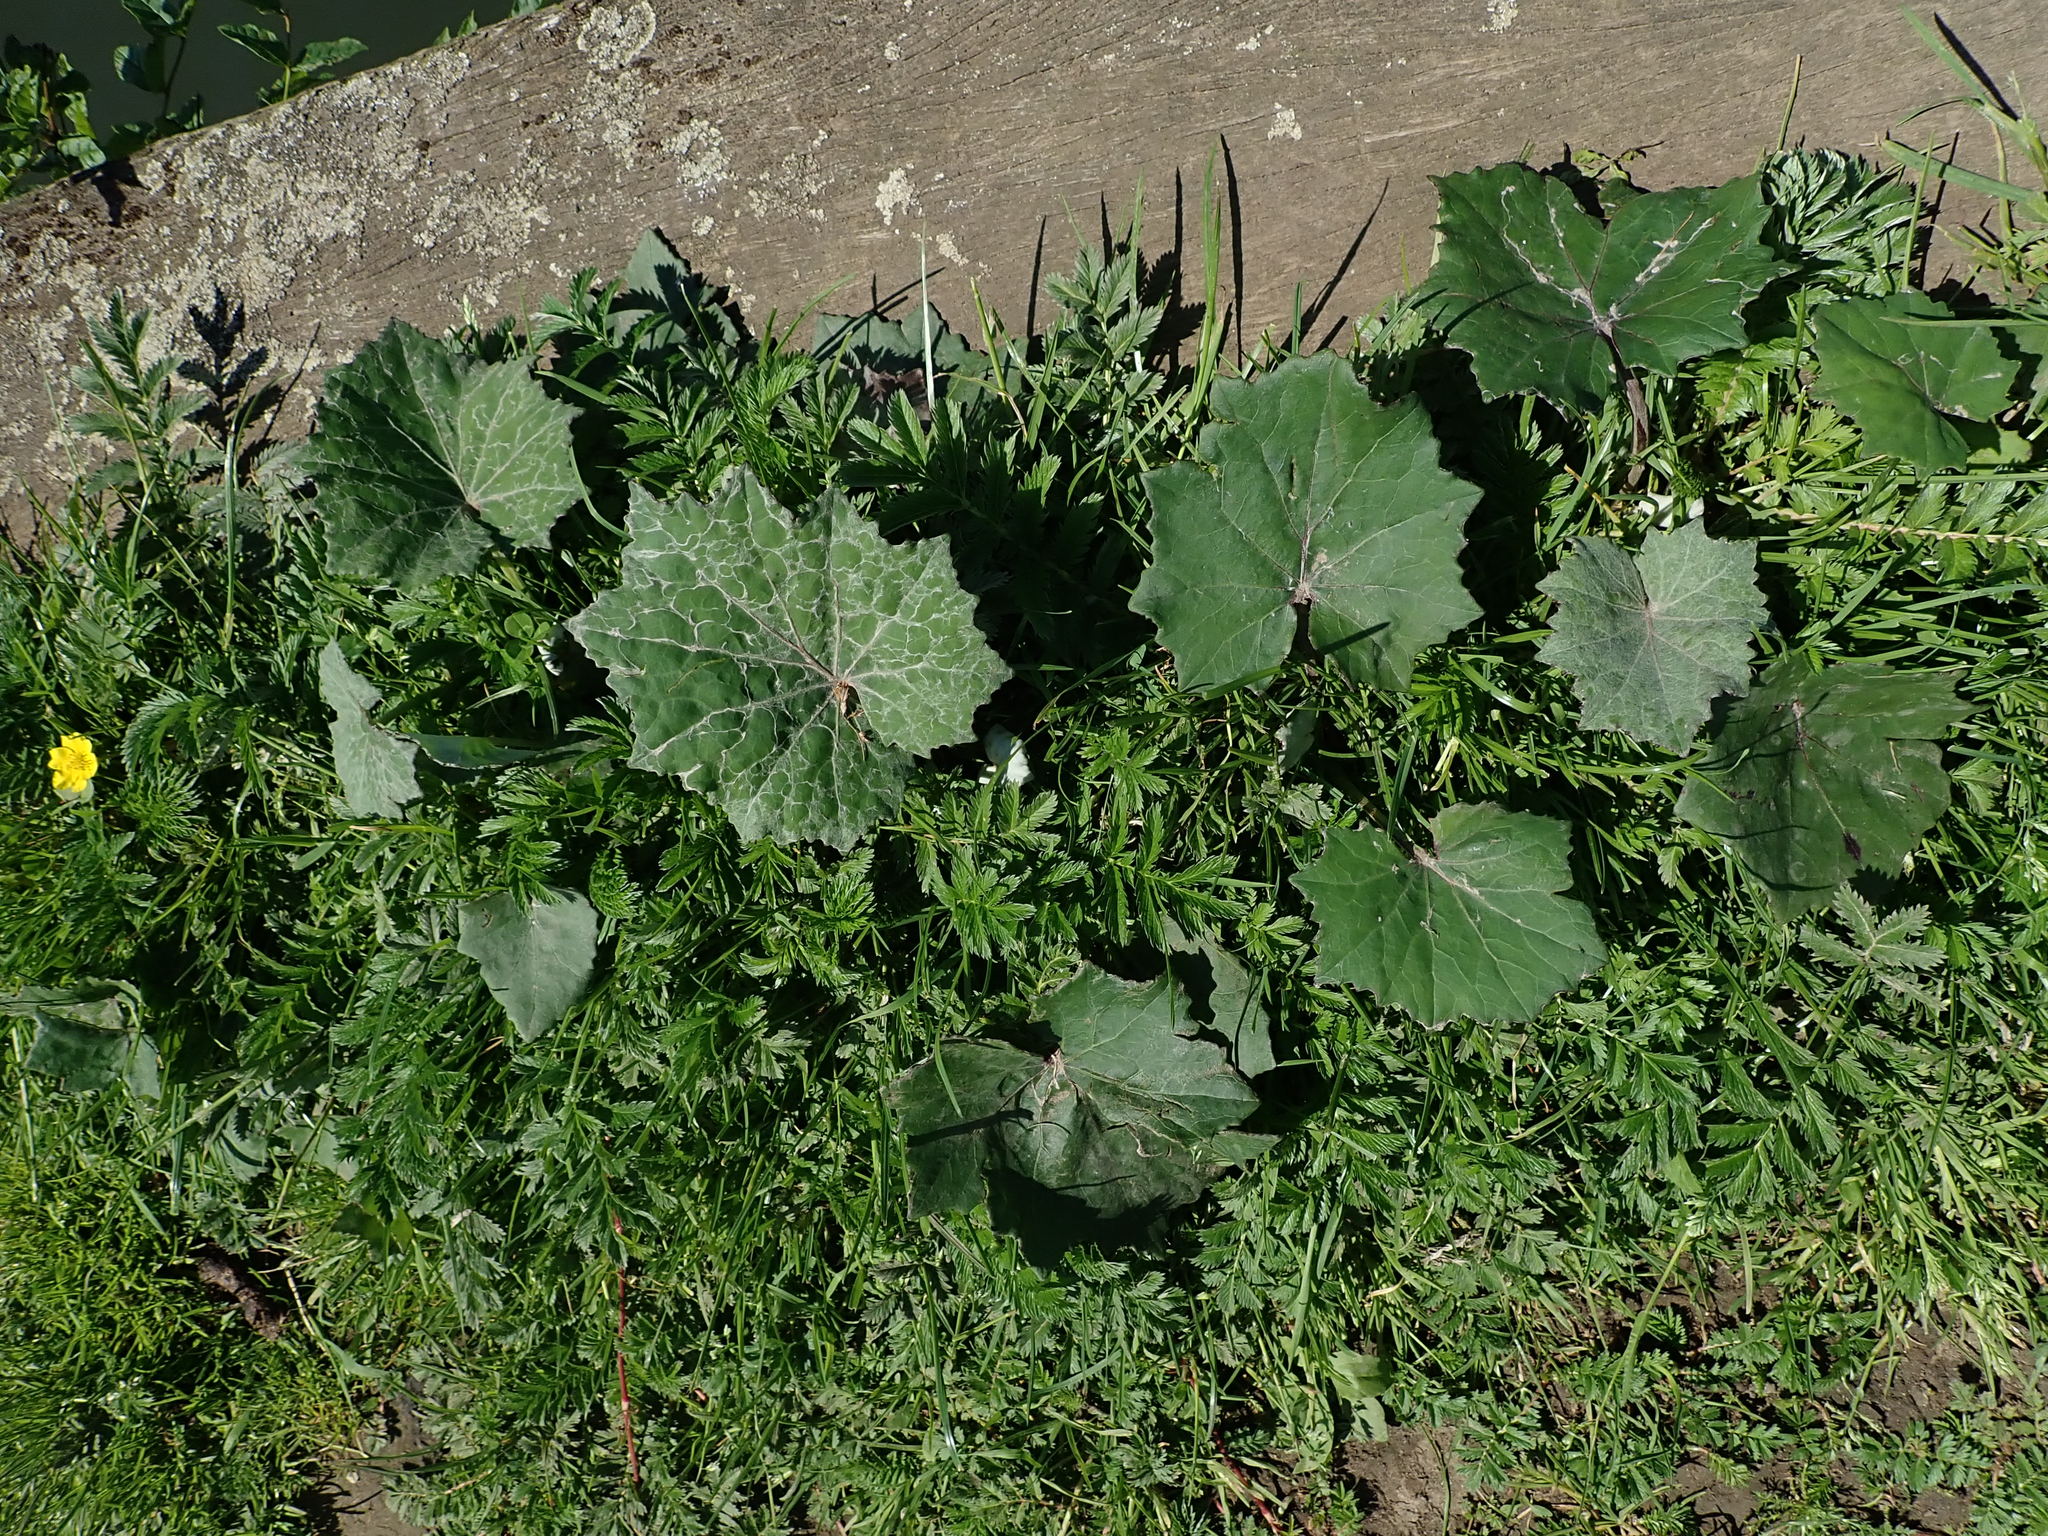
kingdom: Plantae
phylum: Tracheophyta
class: Magnoliopsida
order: Asterales
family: Asteraceae
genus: Tussilago
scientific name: Tussilago farfara
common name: Coltsfoot
